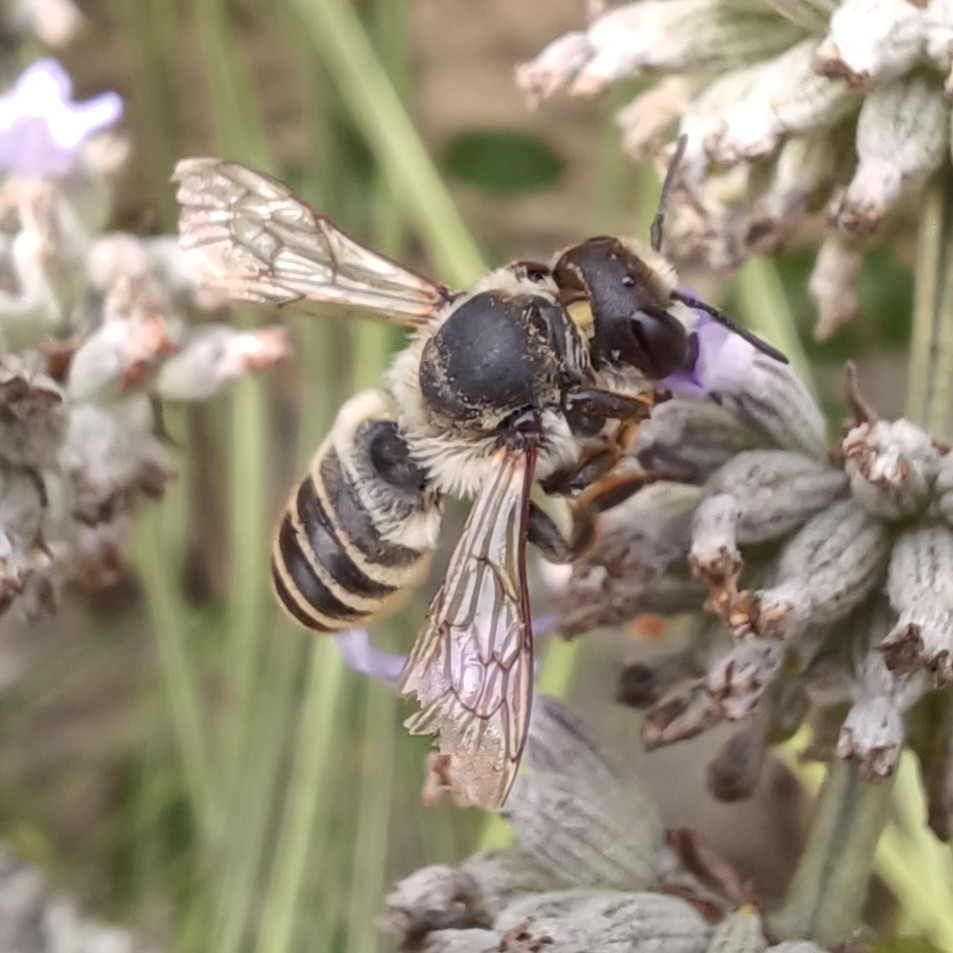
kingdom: Animalia
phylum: Arthropoda
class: Insecta
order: Hymenoptera
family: Megachilidae
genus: Megachile
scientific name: Megachile ericetorum
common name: Leafcutter bee
